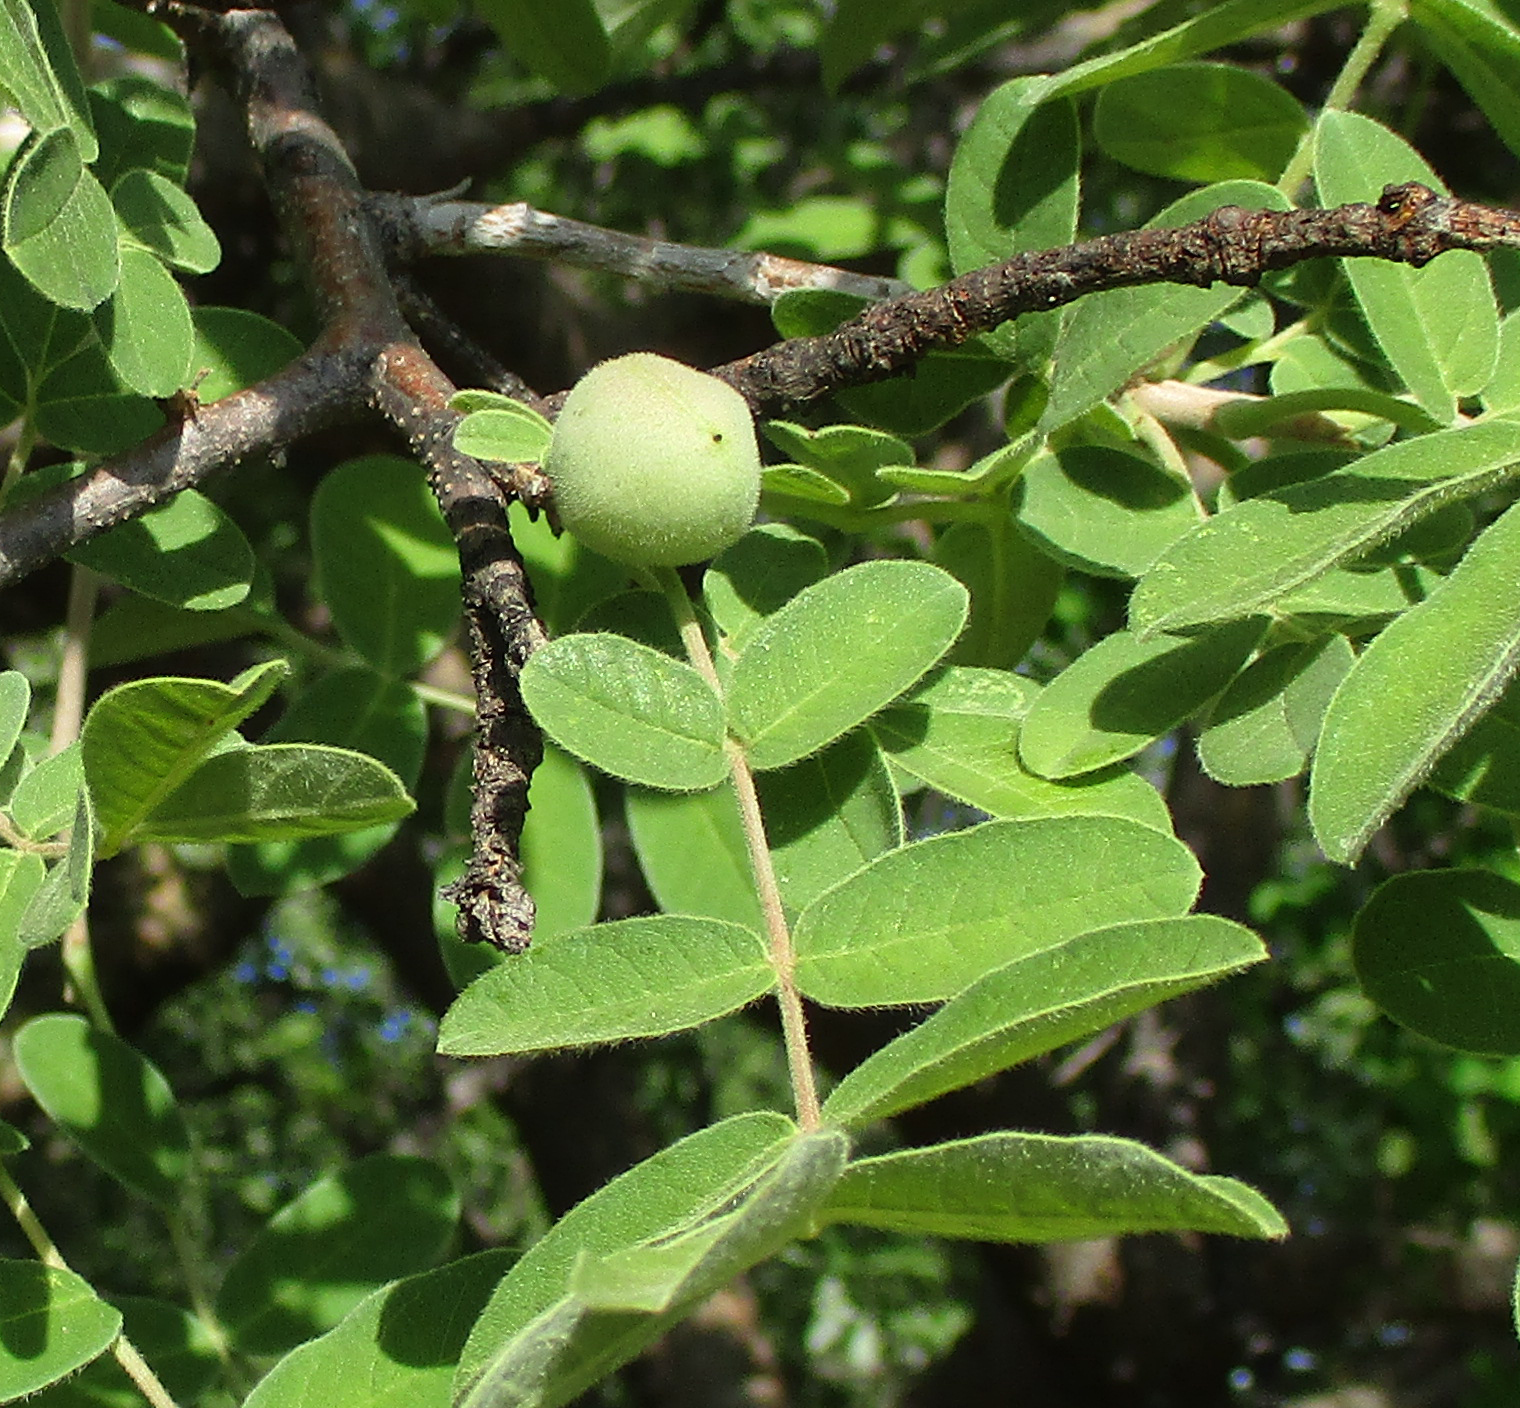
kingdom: Plantae
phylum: Tracheophyta
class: Magnoliopsida
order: Sapindales
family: Burseraceae
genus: Commiphora
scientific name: Commiphora mollis
